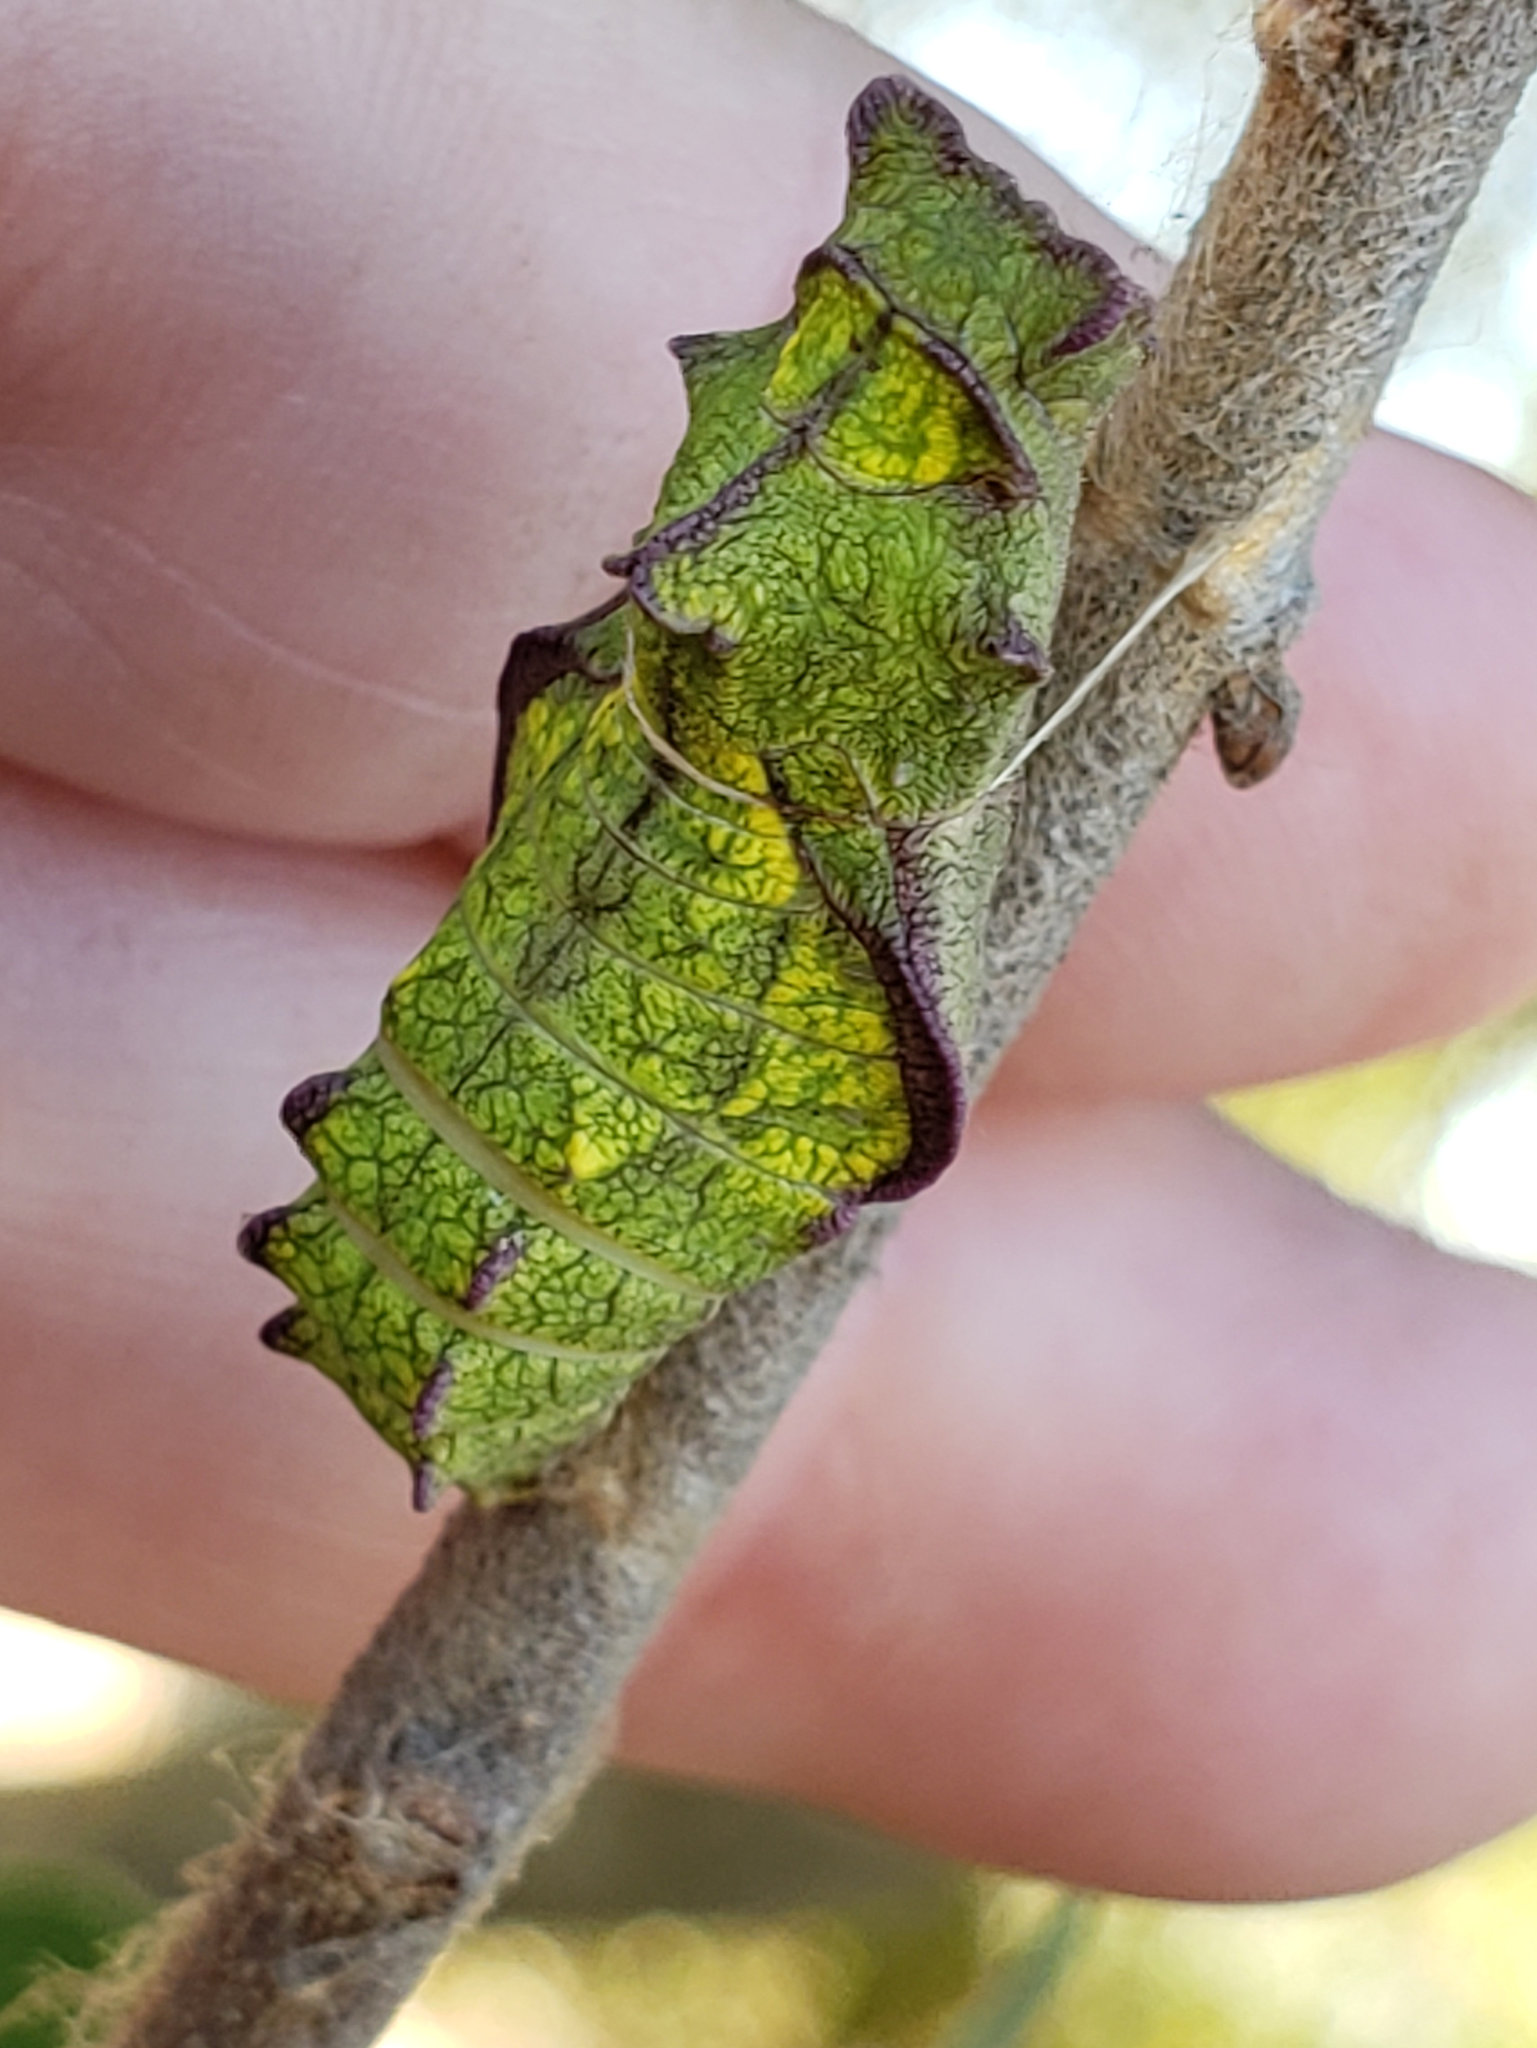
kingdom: Animalia
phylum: Arthropoda
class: Insecta
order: Lepidoptera
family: Papilionidae
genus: Battus
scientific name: Battus philenor
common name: Pipevine swallowtail
